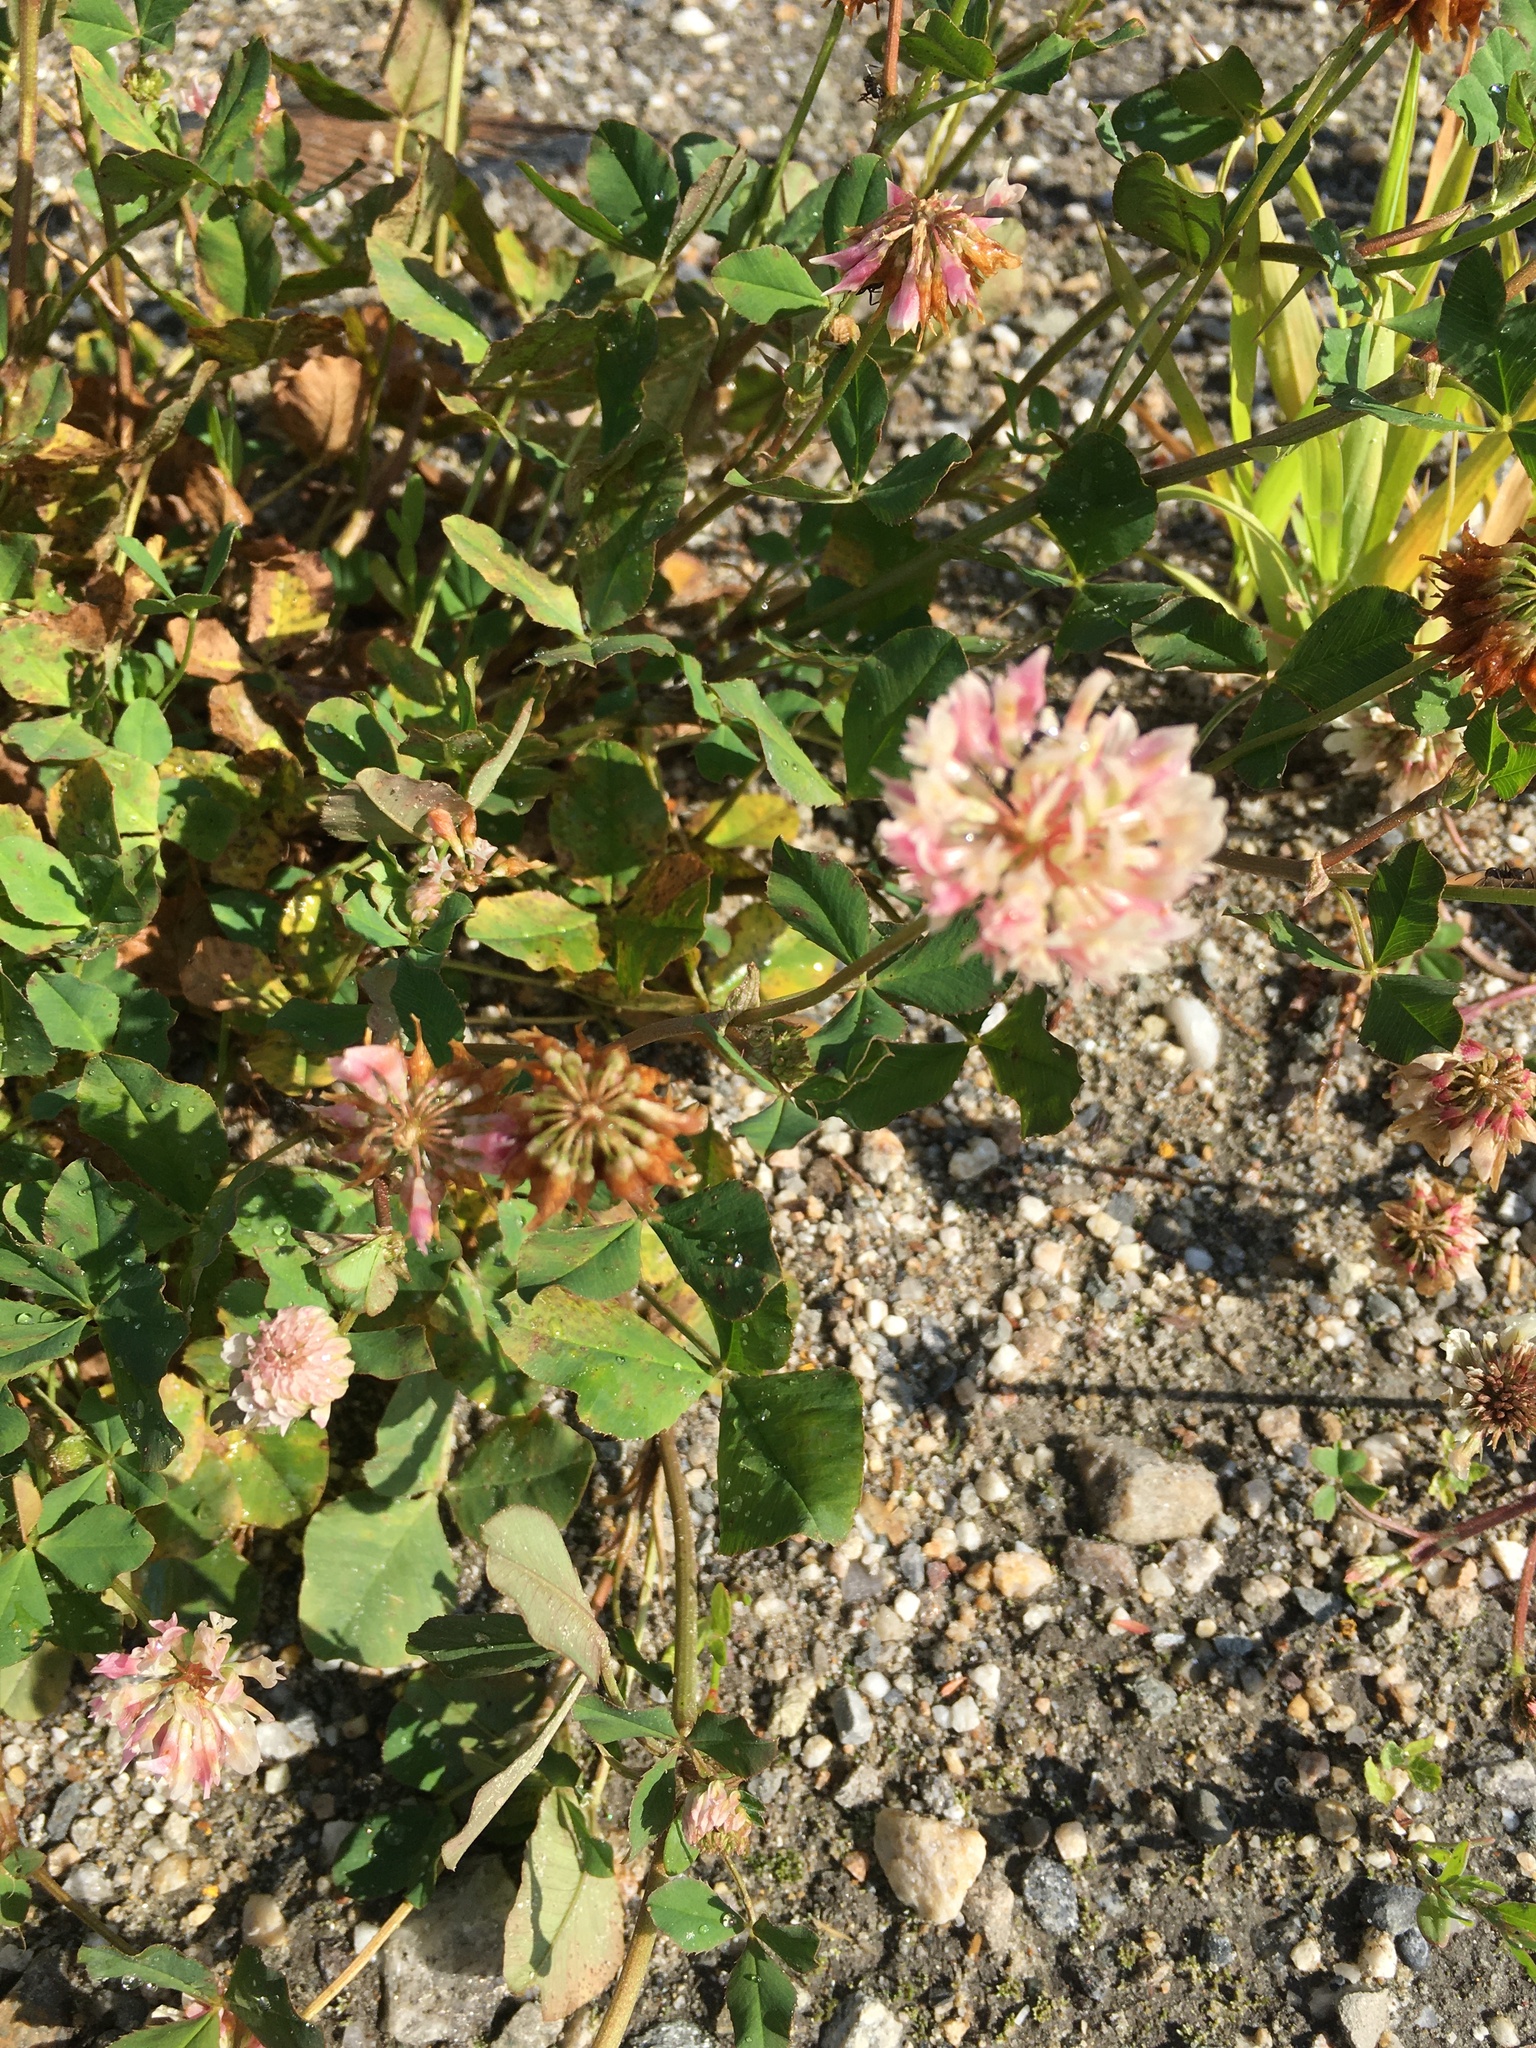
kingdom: Plantae
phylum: Tracheophyta
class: Magnoliopsida
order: Fabales
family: Fabaceae
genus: Trifolium
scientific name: Trifolium hybridum
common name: Alsike clover
